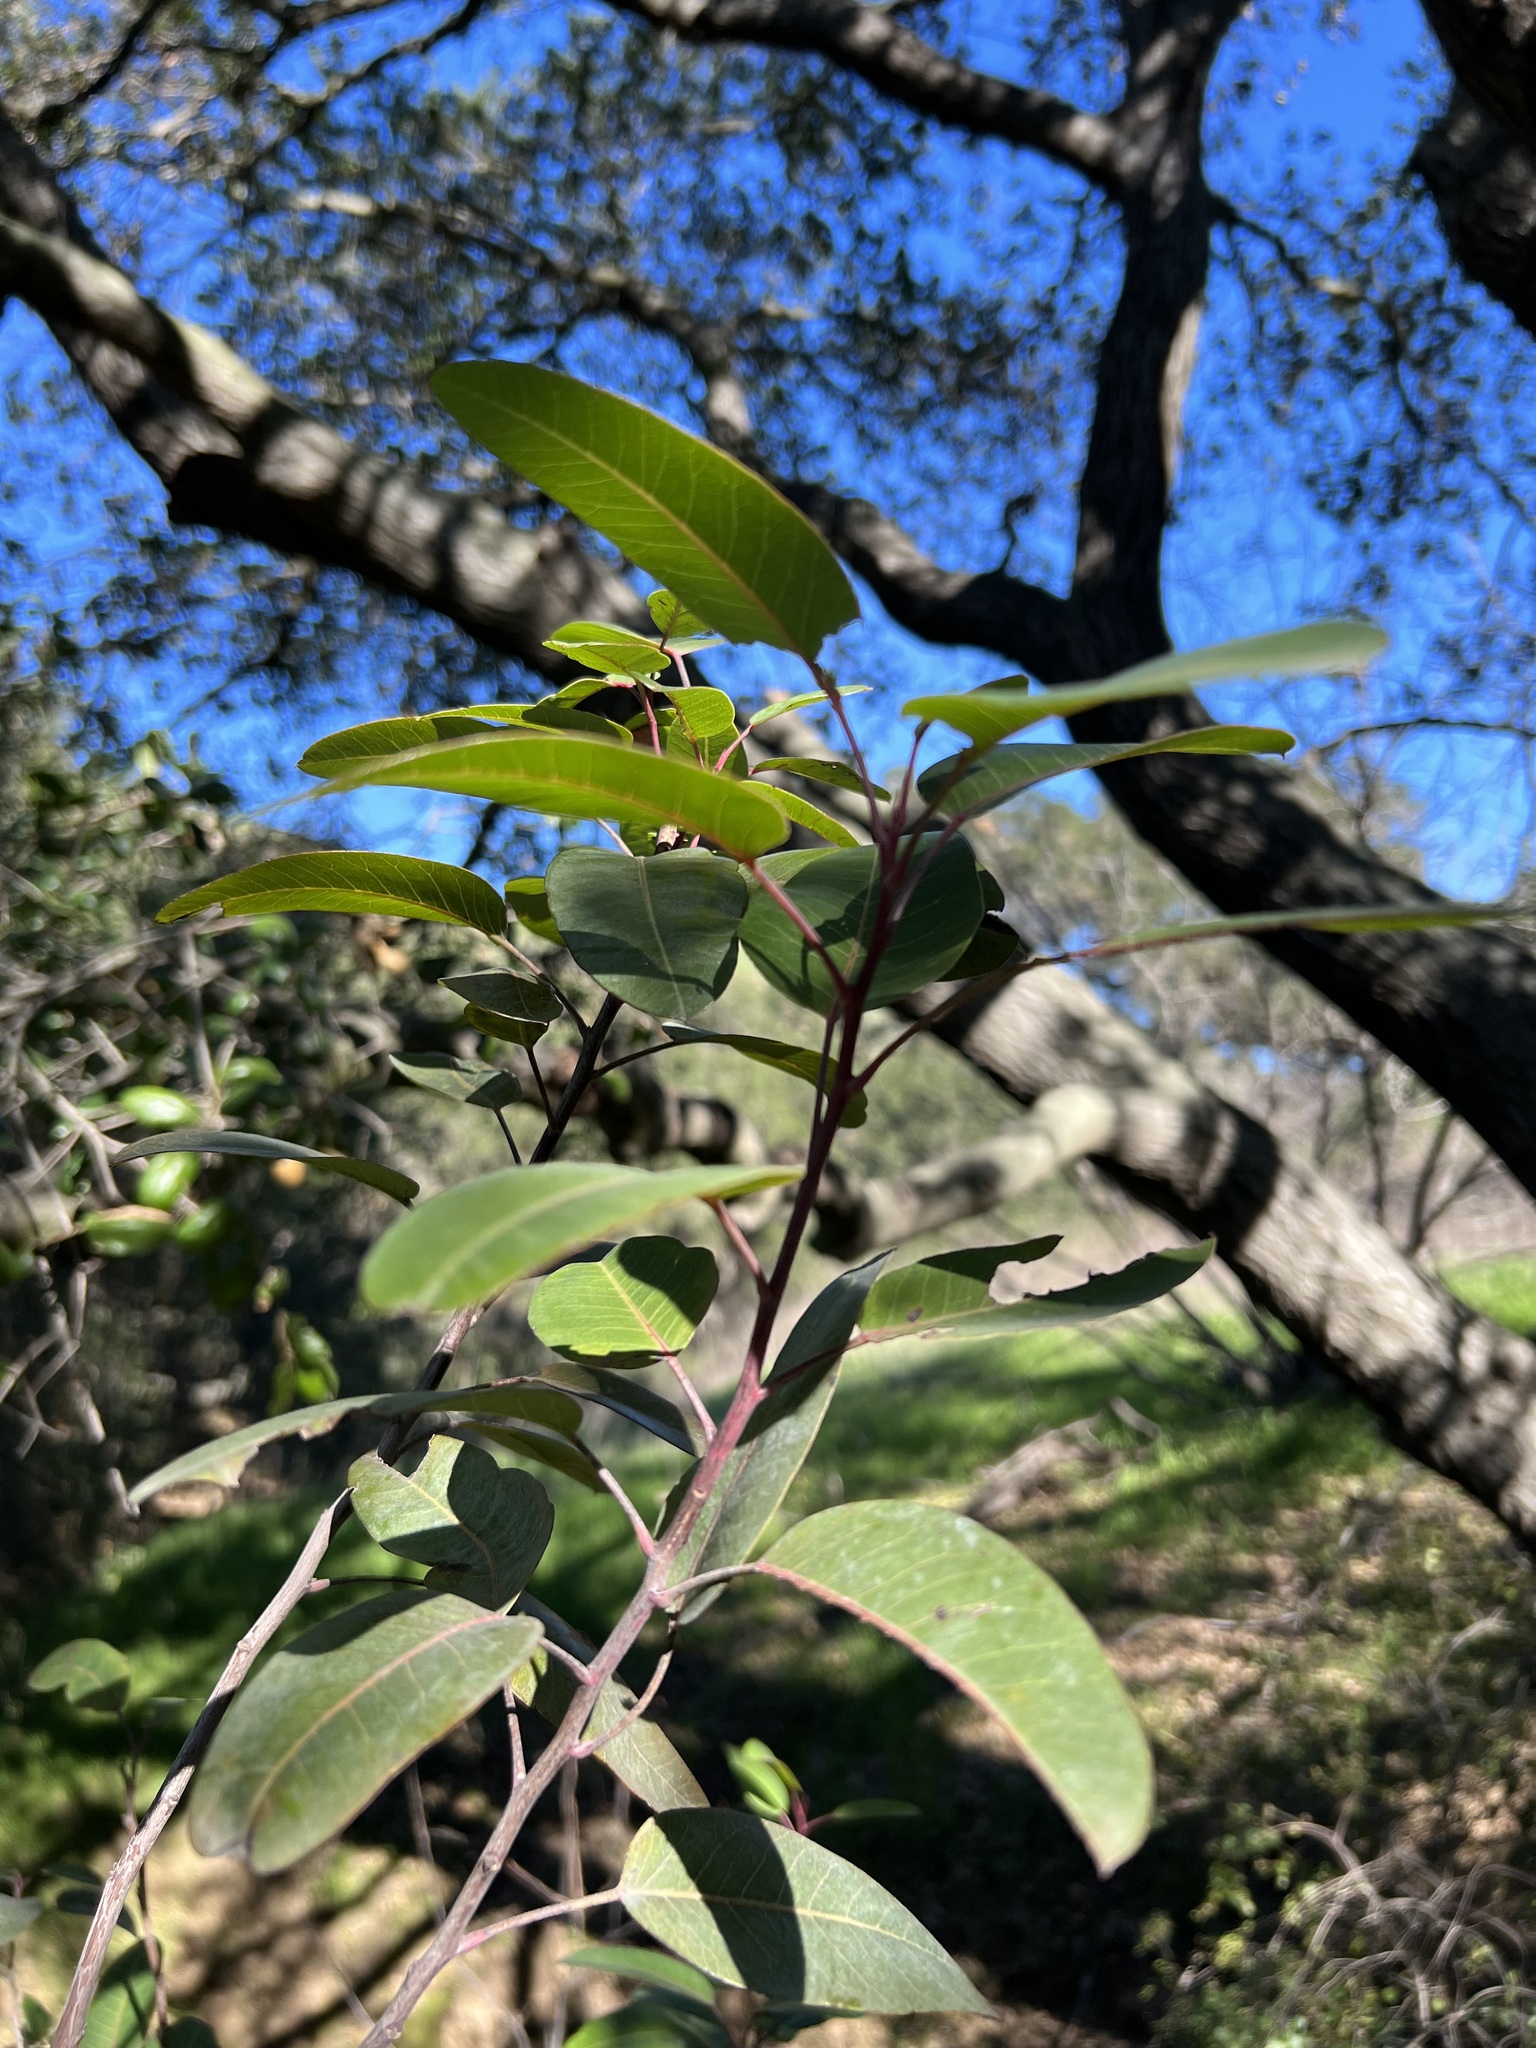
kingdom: Plantae
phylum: Tracheophyta
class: Magnoliopsida
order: Sapindales
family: Anacardiaceae
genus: Malosma
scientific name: Malosma laurina
